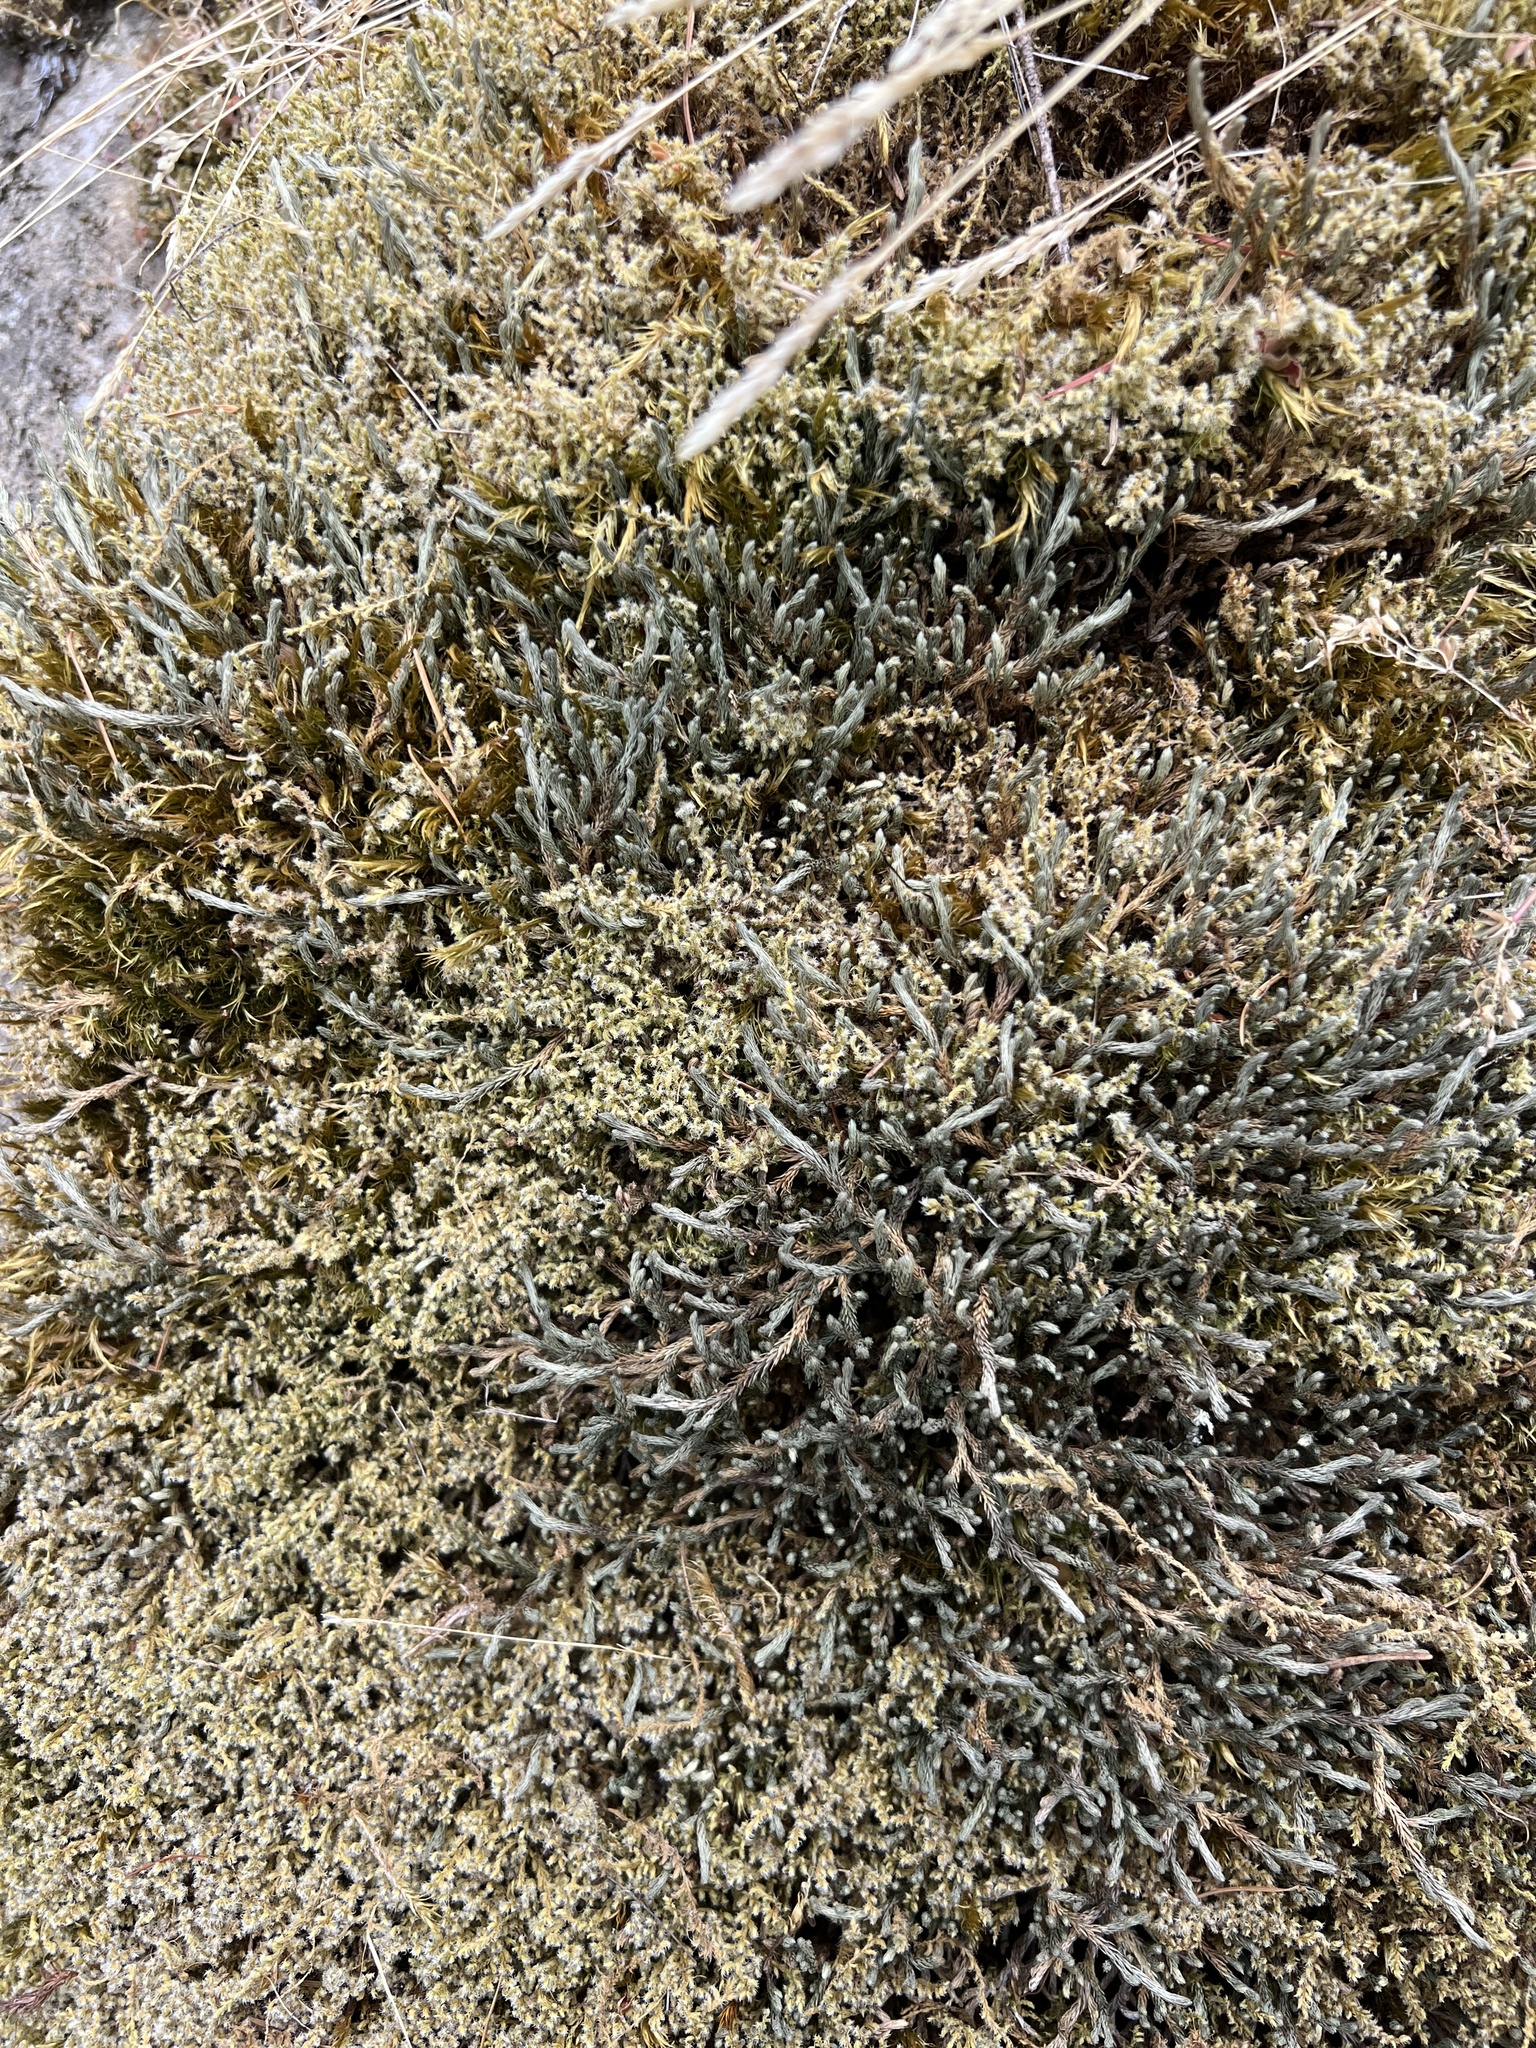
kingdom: Plantae
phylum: Tracheophyta
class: Lycopodiopsida
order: Selaginellales
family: Selaginellaceae
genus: Selaginella
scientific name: Selaginella wallacei
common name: Wallace's selaginella
